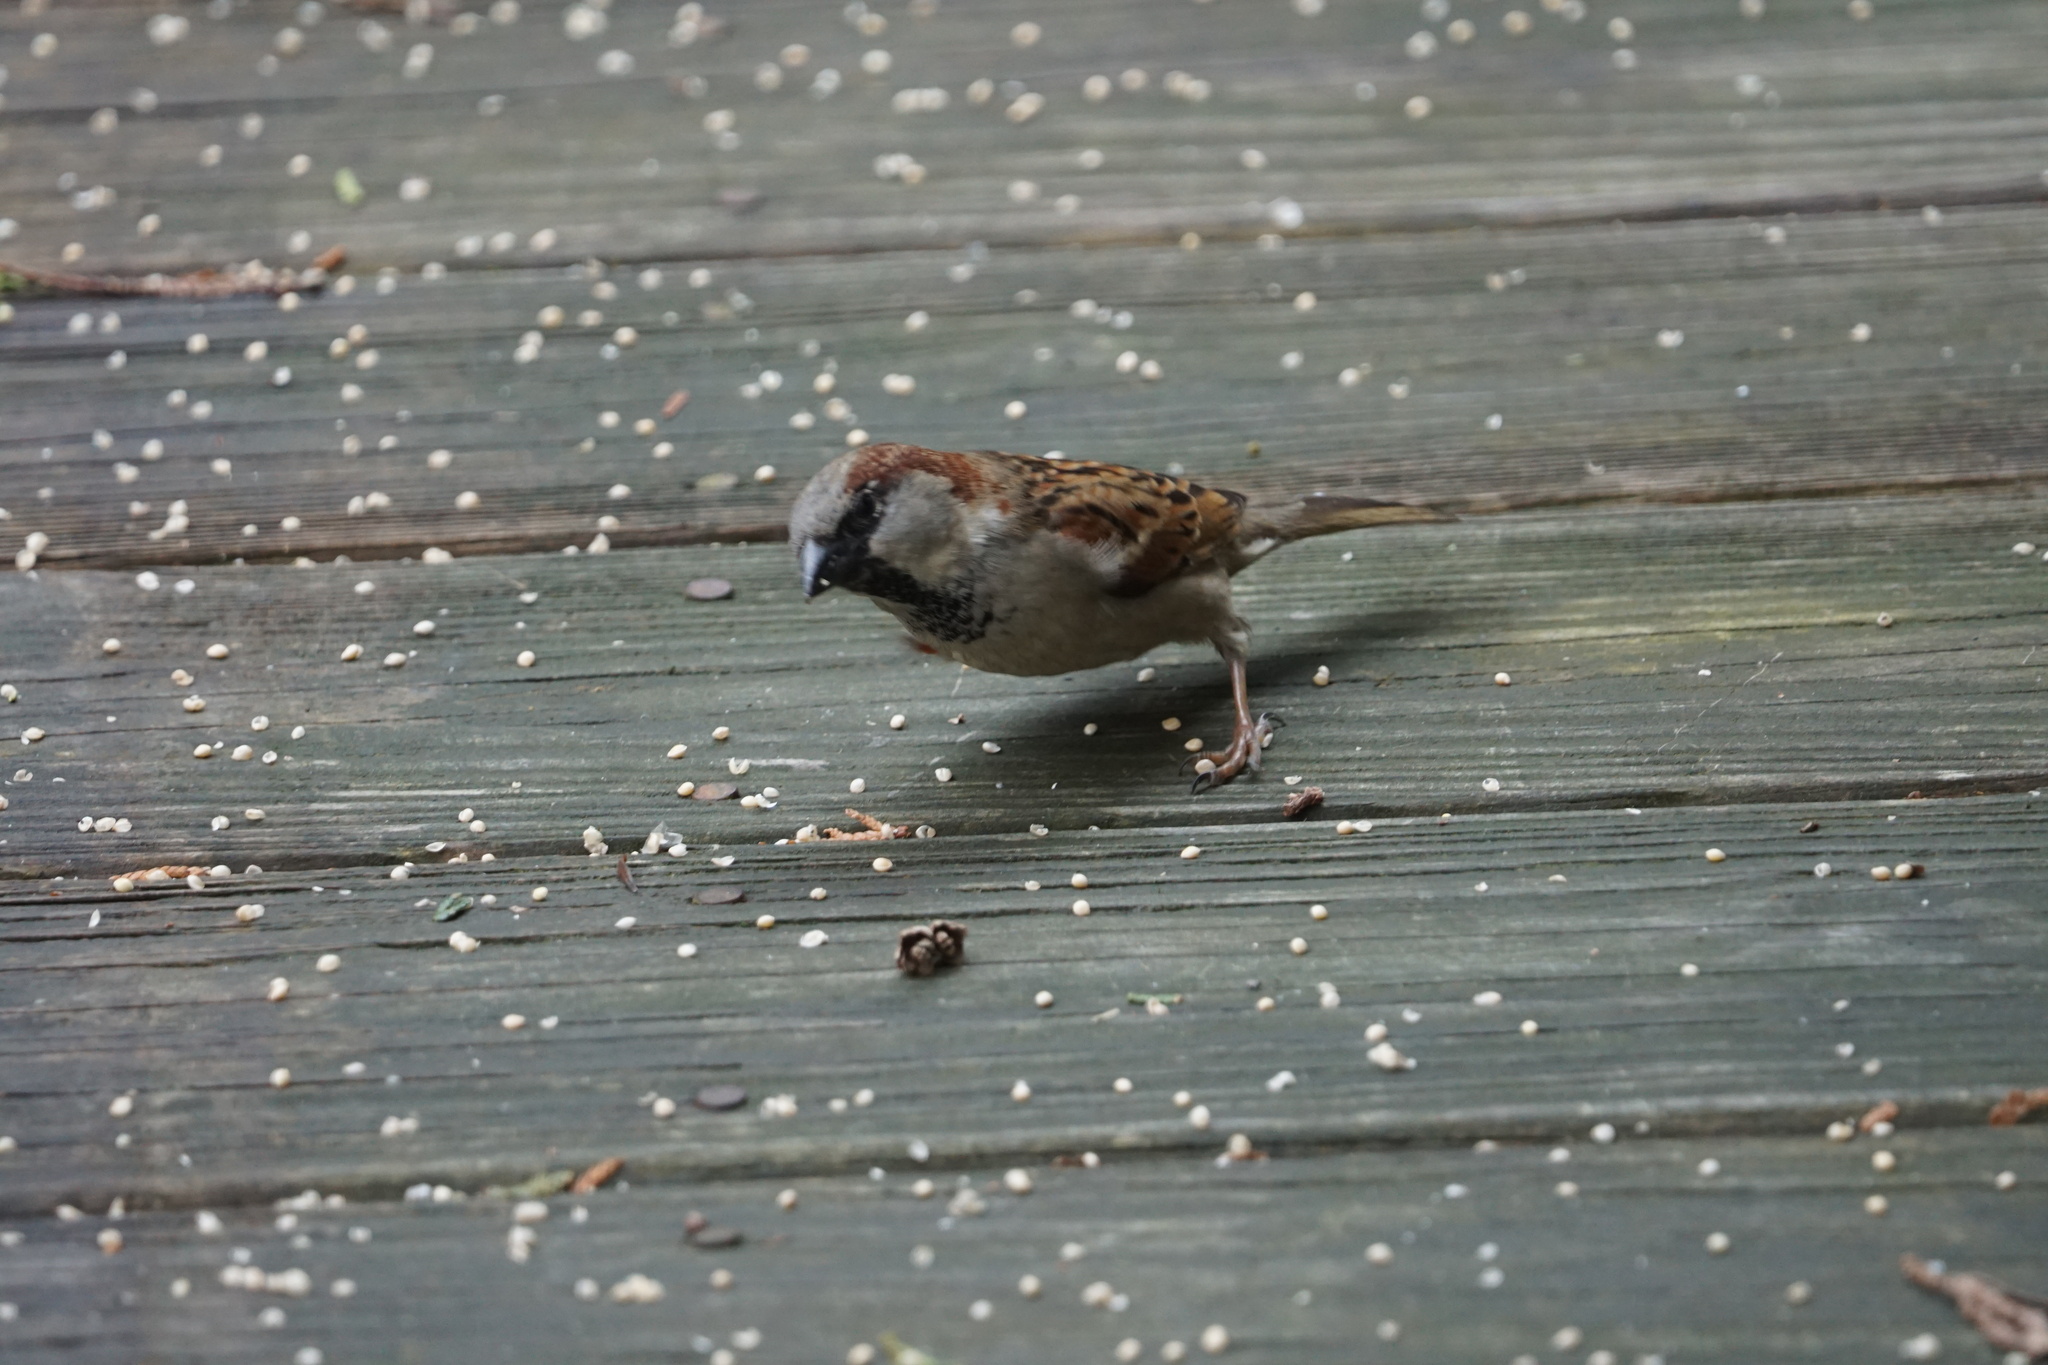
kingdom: Animalia
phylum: Chordata
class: Aves
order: Passeriformes
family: Passeridae
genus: Passer
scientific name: Passer domesticus
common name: House sparrow
